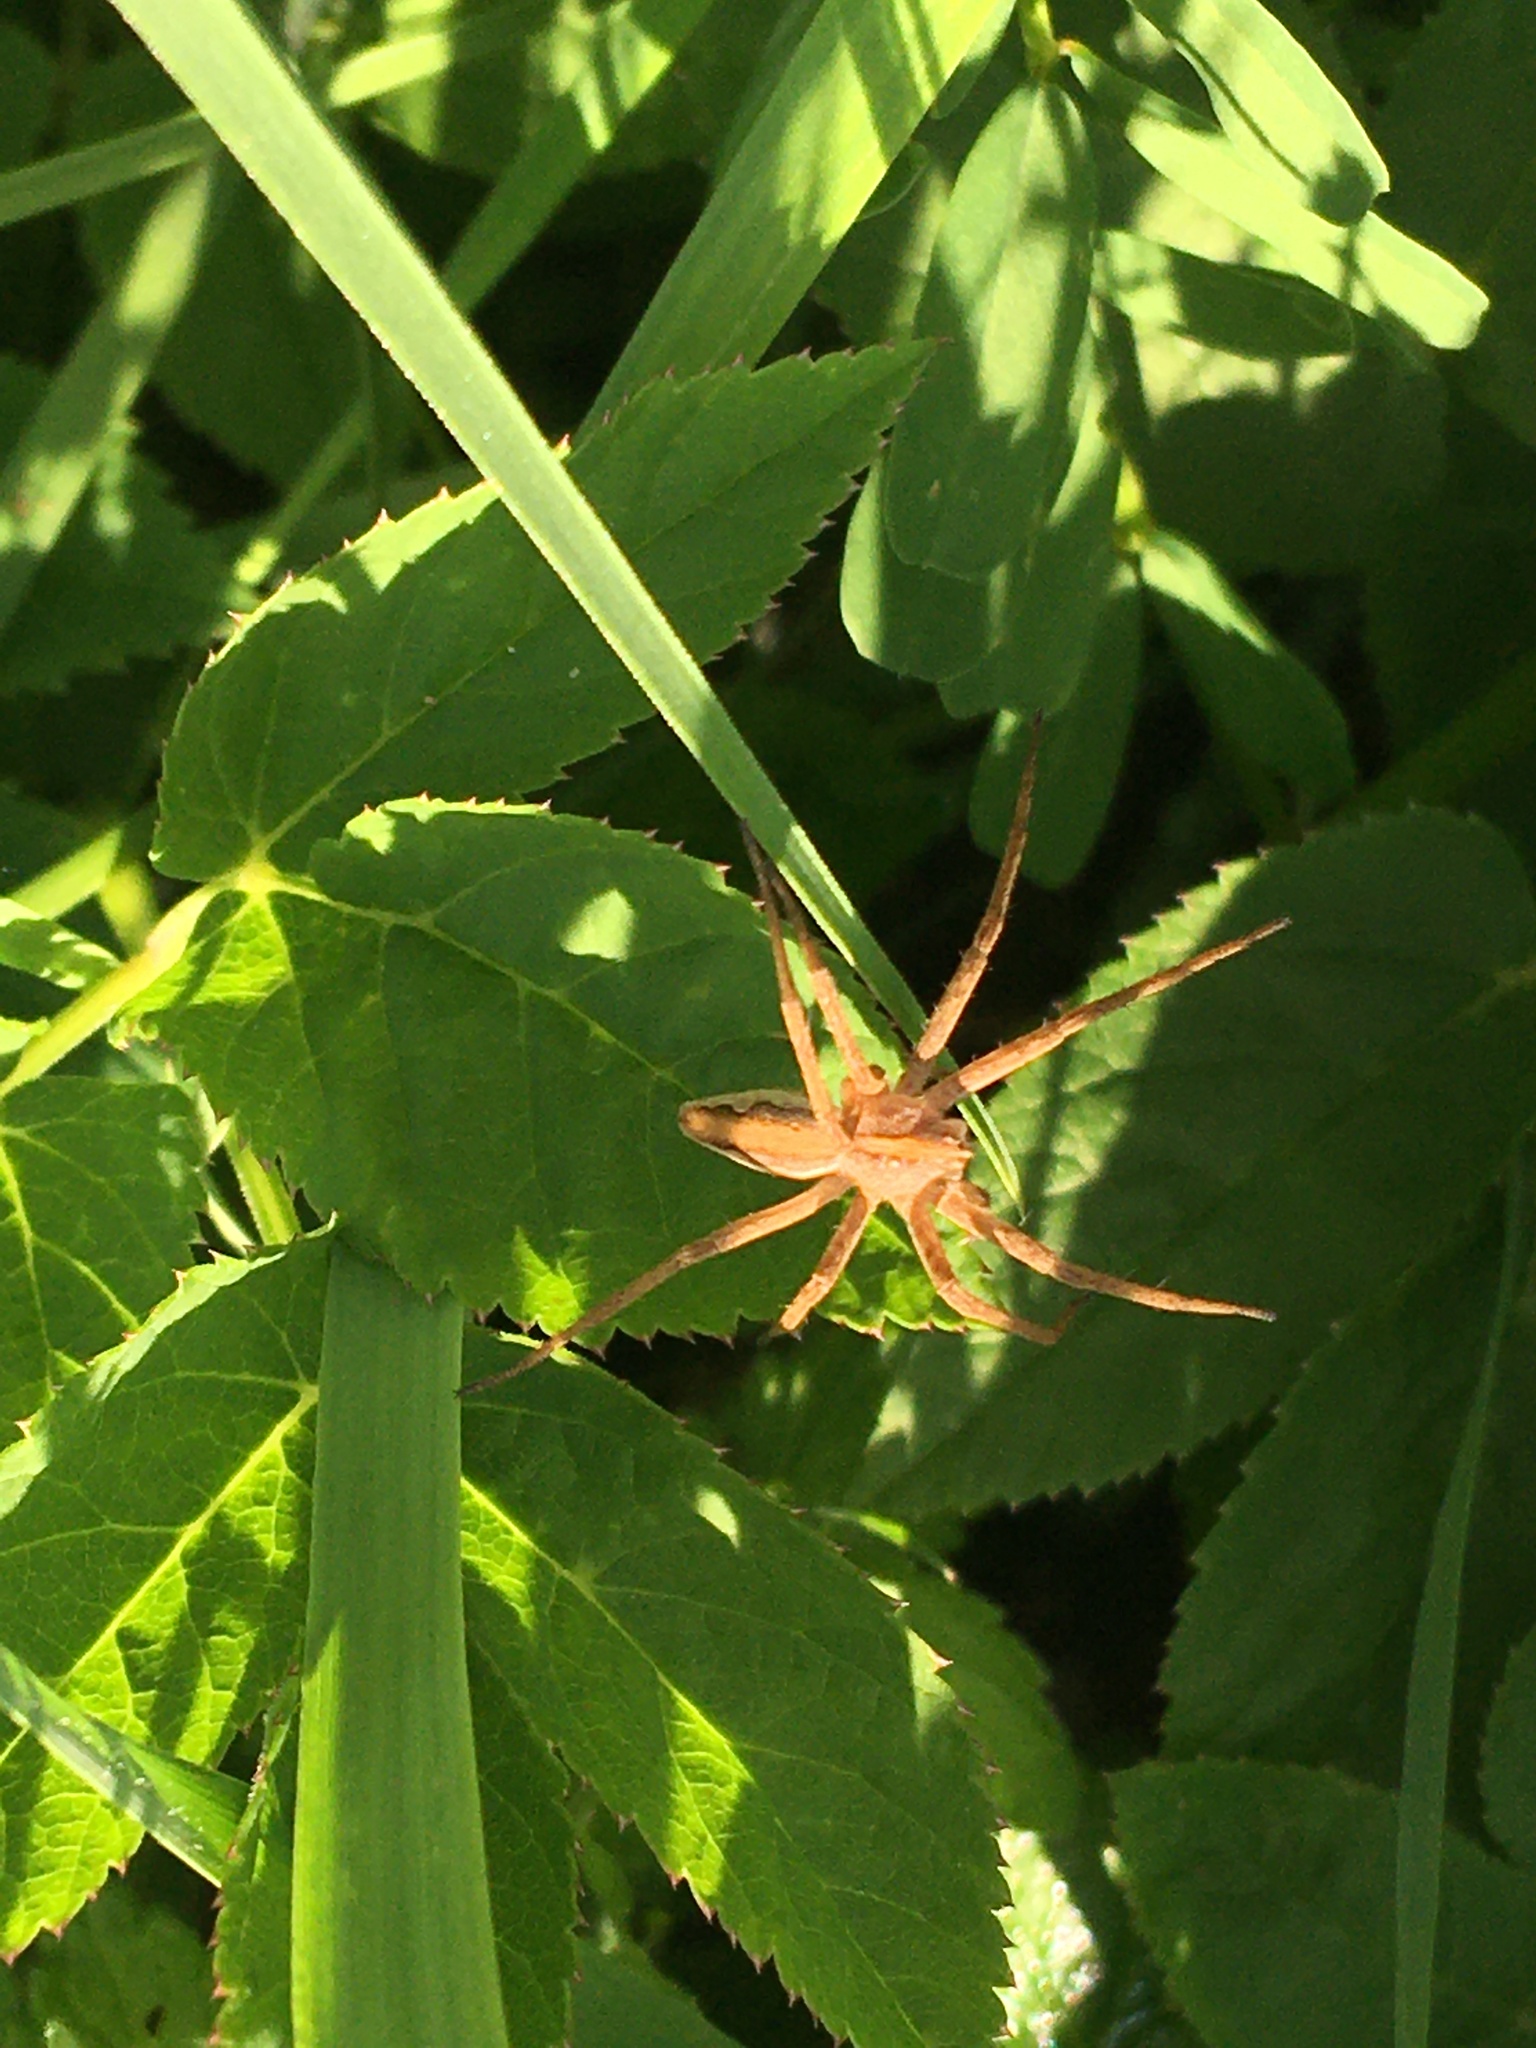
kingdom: Animalia
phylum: Arthropoda
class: Arachnida
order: Araneae
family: Pisauridae
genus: Pisaura
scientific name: Pisaura mirabilis
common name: Tent spider
